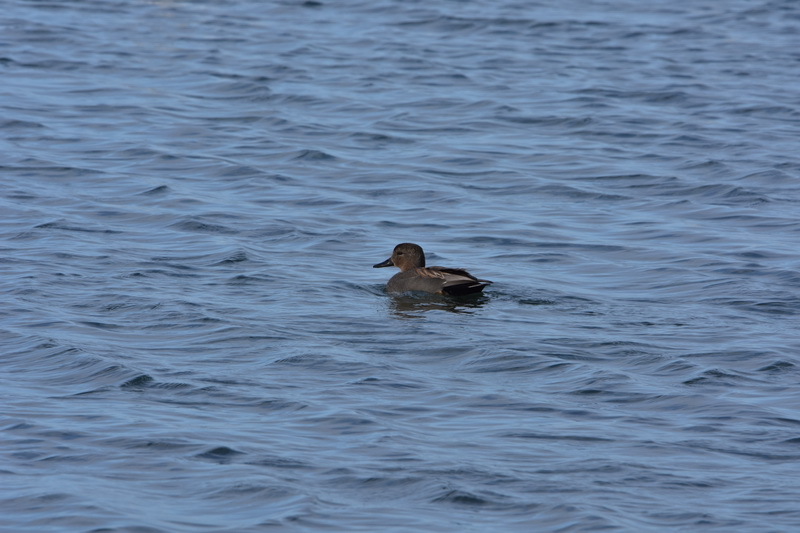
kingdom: Animalia
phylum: Chordata
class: Aves
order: Anseriformes
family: Anatidae
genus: Mareca
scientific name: Mareca strepera
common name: Gadwall
